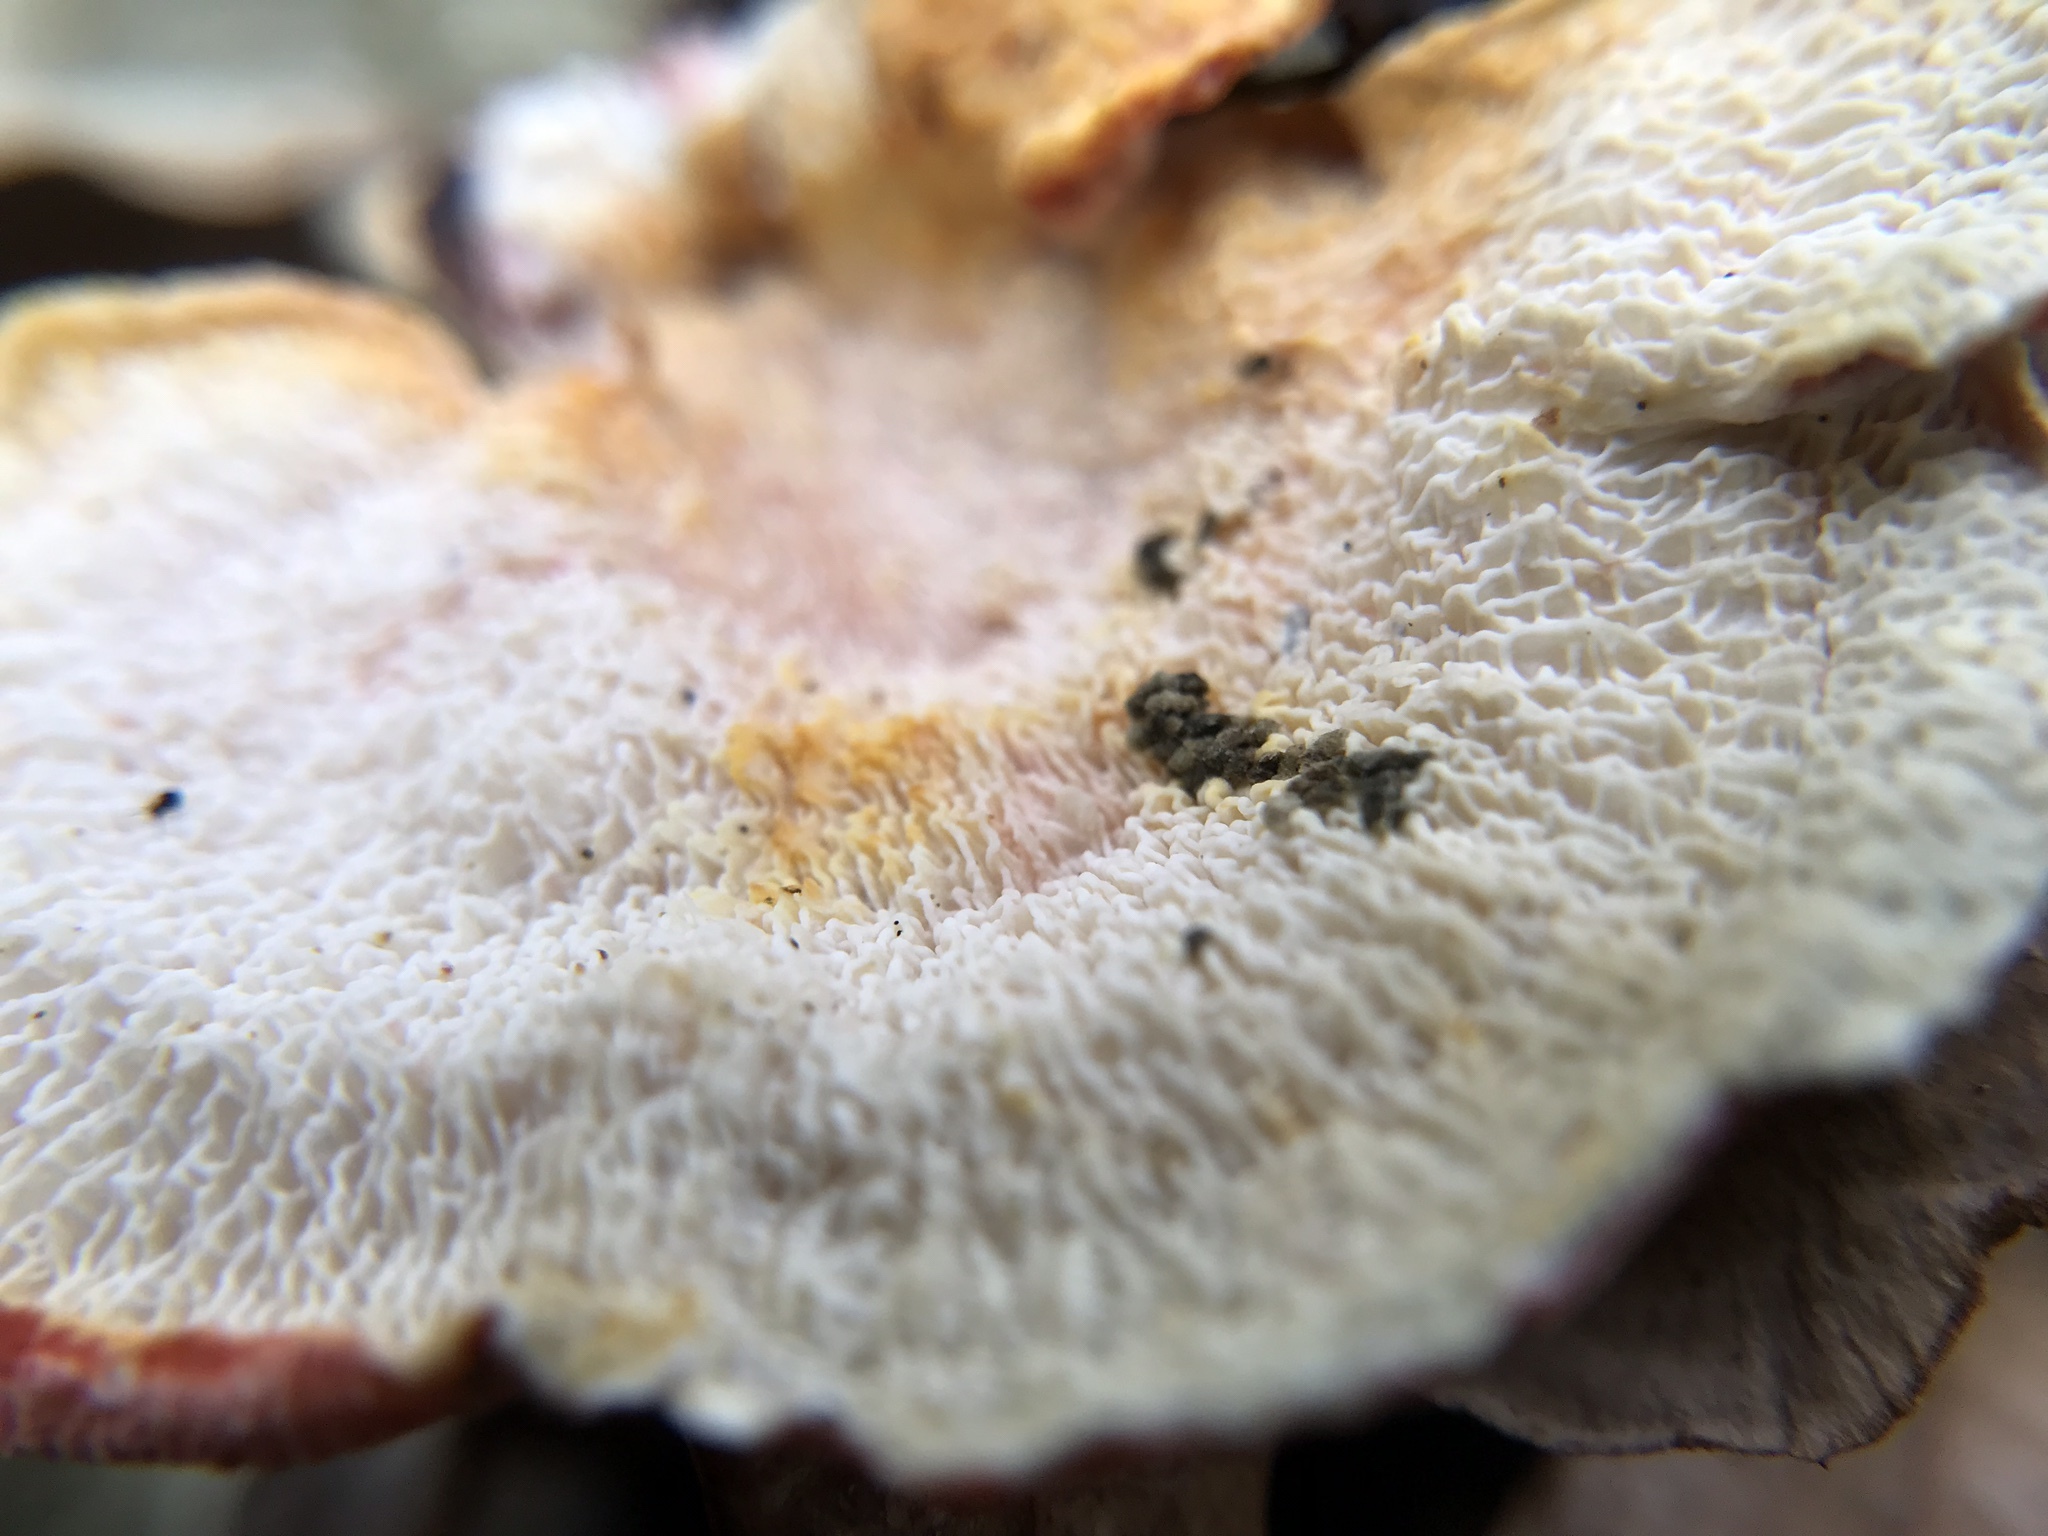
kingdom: Fungi
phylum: Basidiomycota
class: Agaricomycetes
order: Polyporales
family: Irpicaceae
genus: Byssomerulius
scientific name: Byssomerulius incarnatus
